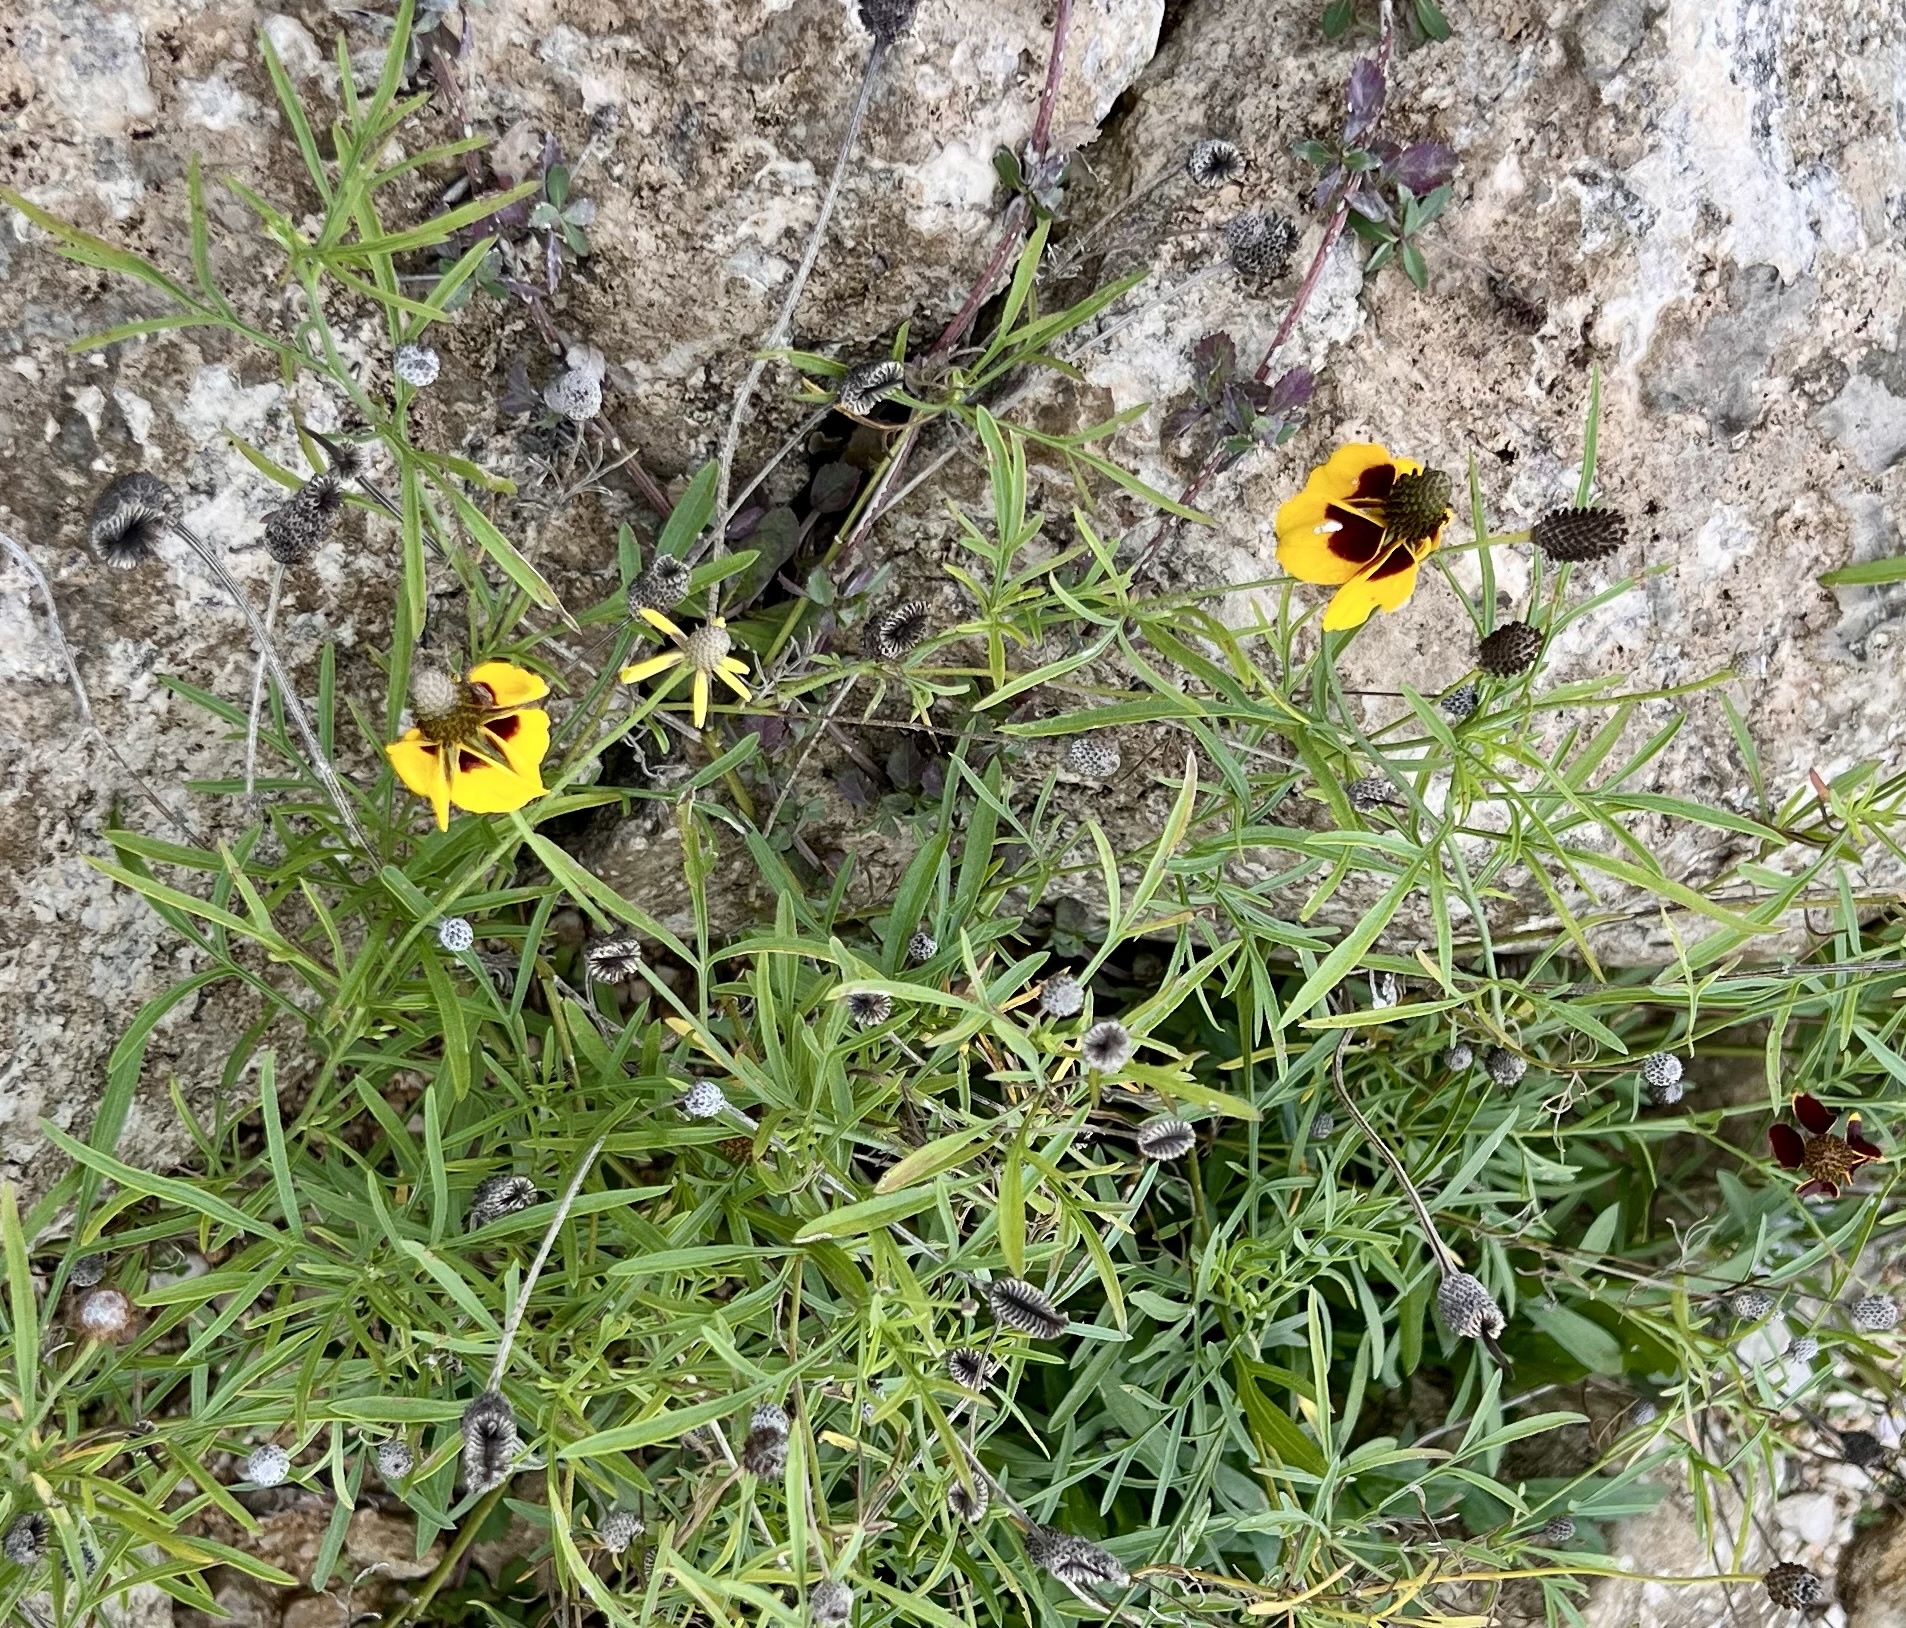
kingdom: Plantae
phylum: Tracheophyta
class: Magnoliopsida
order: Asterales
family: Asteraceae
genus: Ratibida
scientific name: Ratibida columnifera
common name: Prairie coneflower
